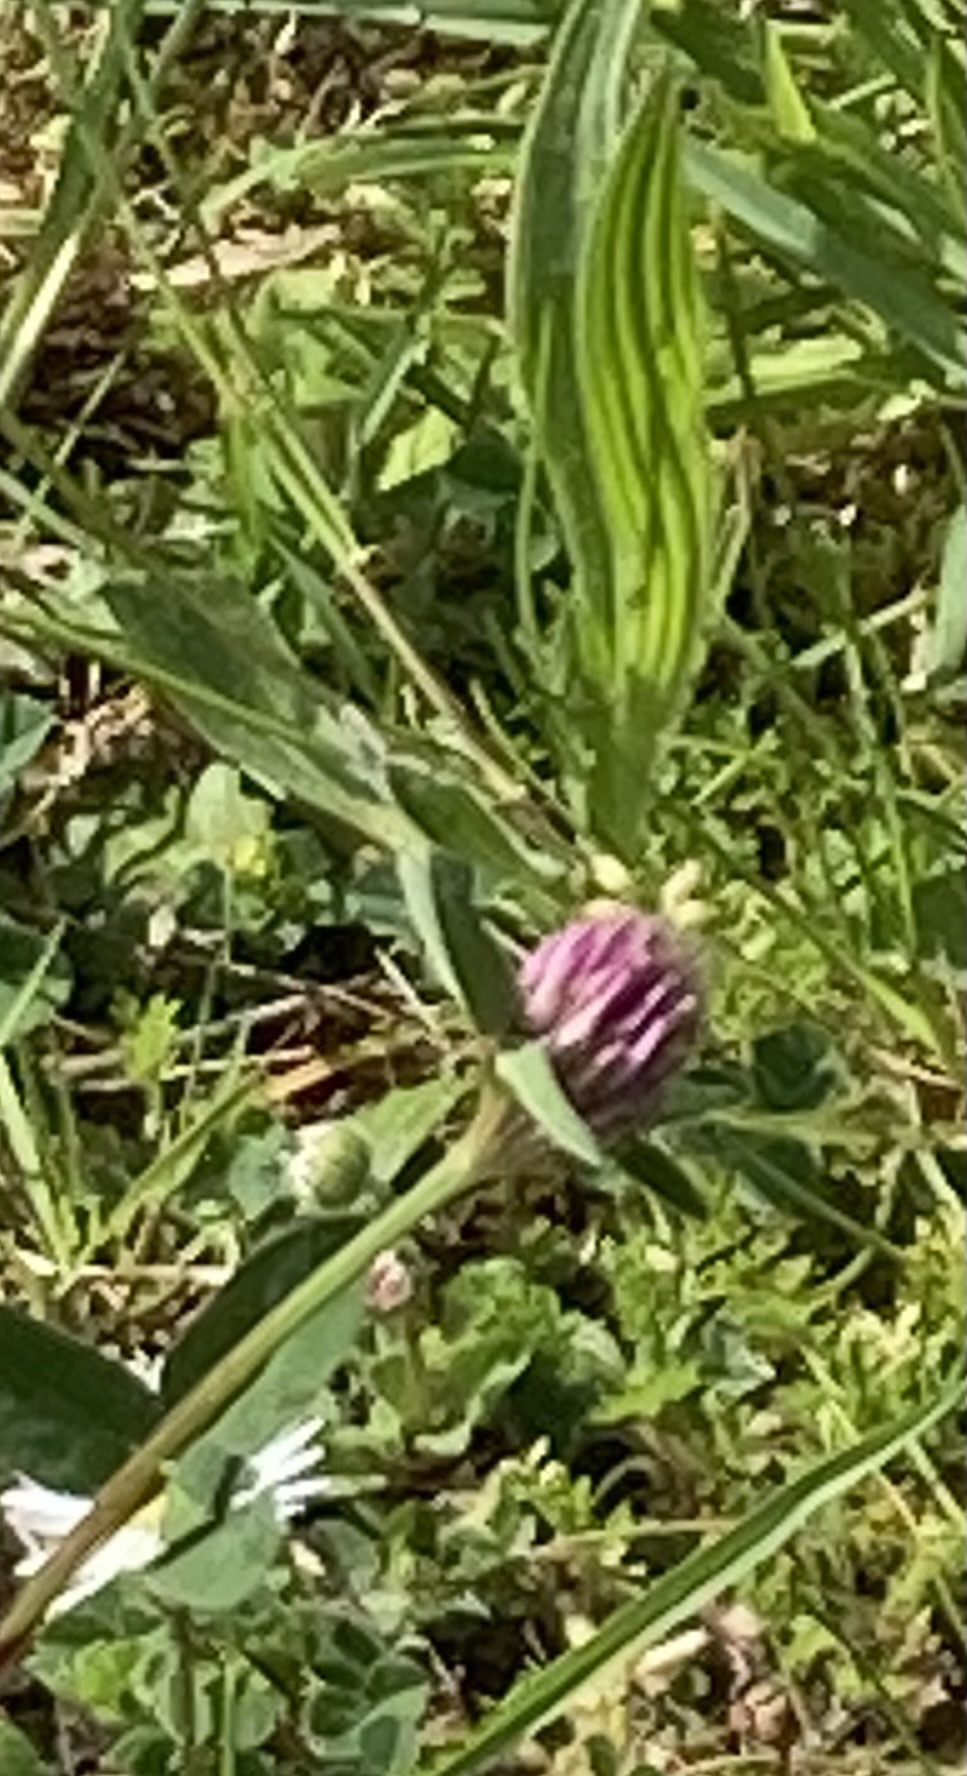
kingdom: Plantae
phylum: Tracheophyta
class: Magnoliopsida
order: Fabales
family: Fabaceae
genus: Trifolium
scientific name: Trifolium pratense
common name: Red clover
